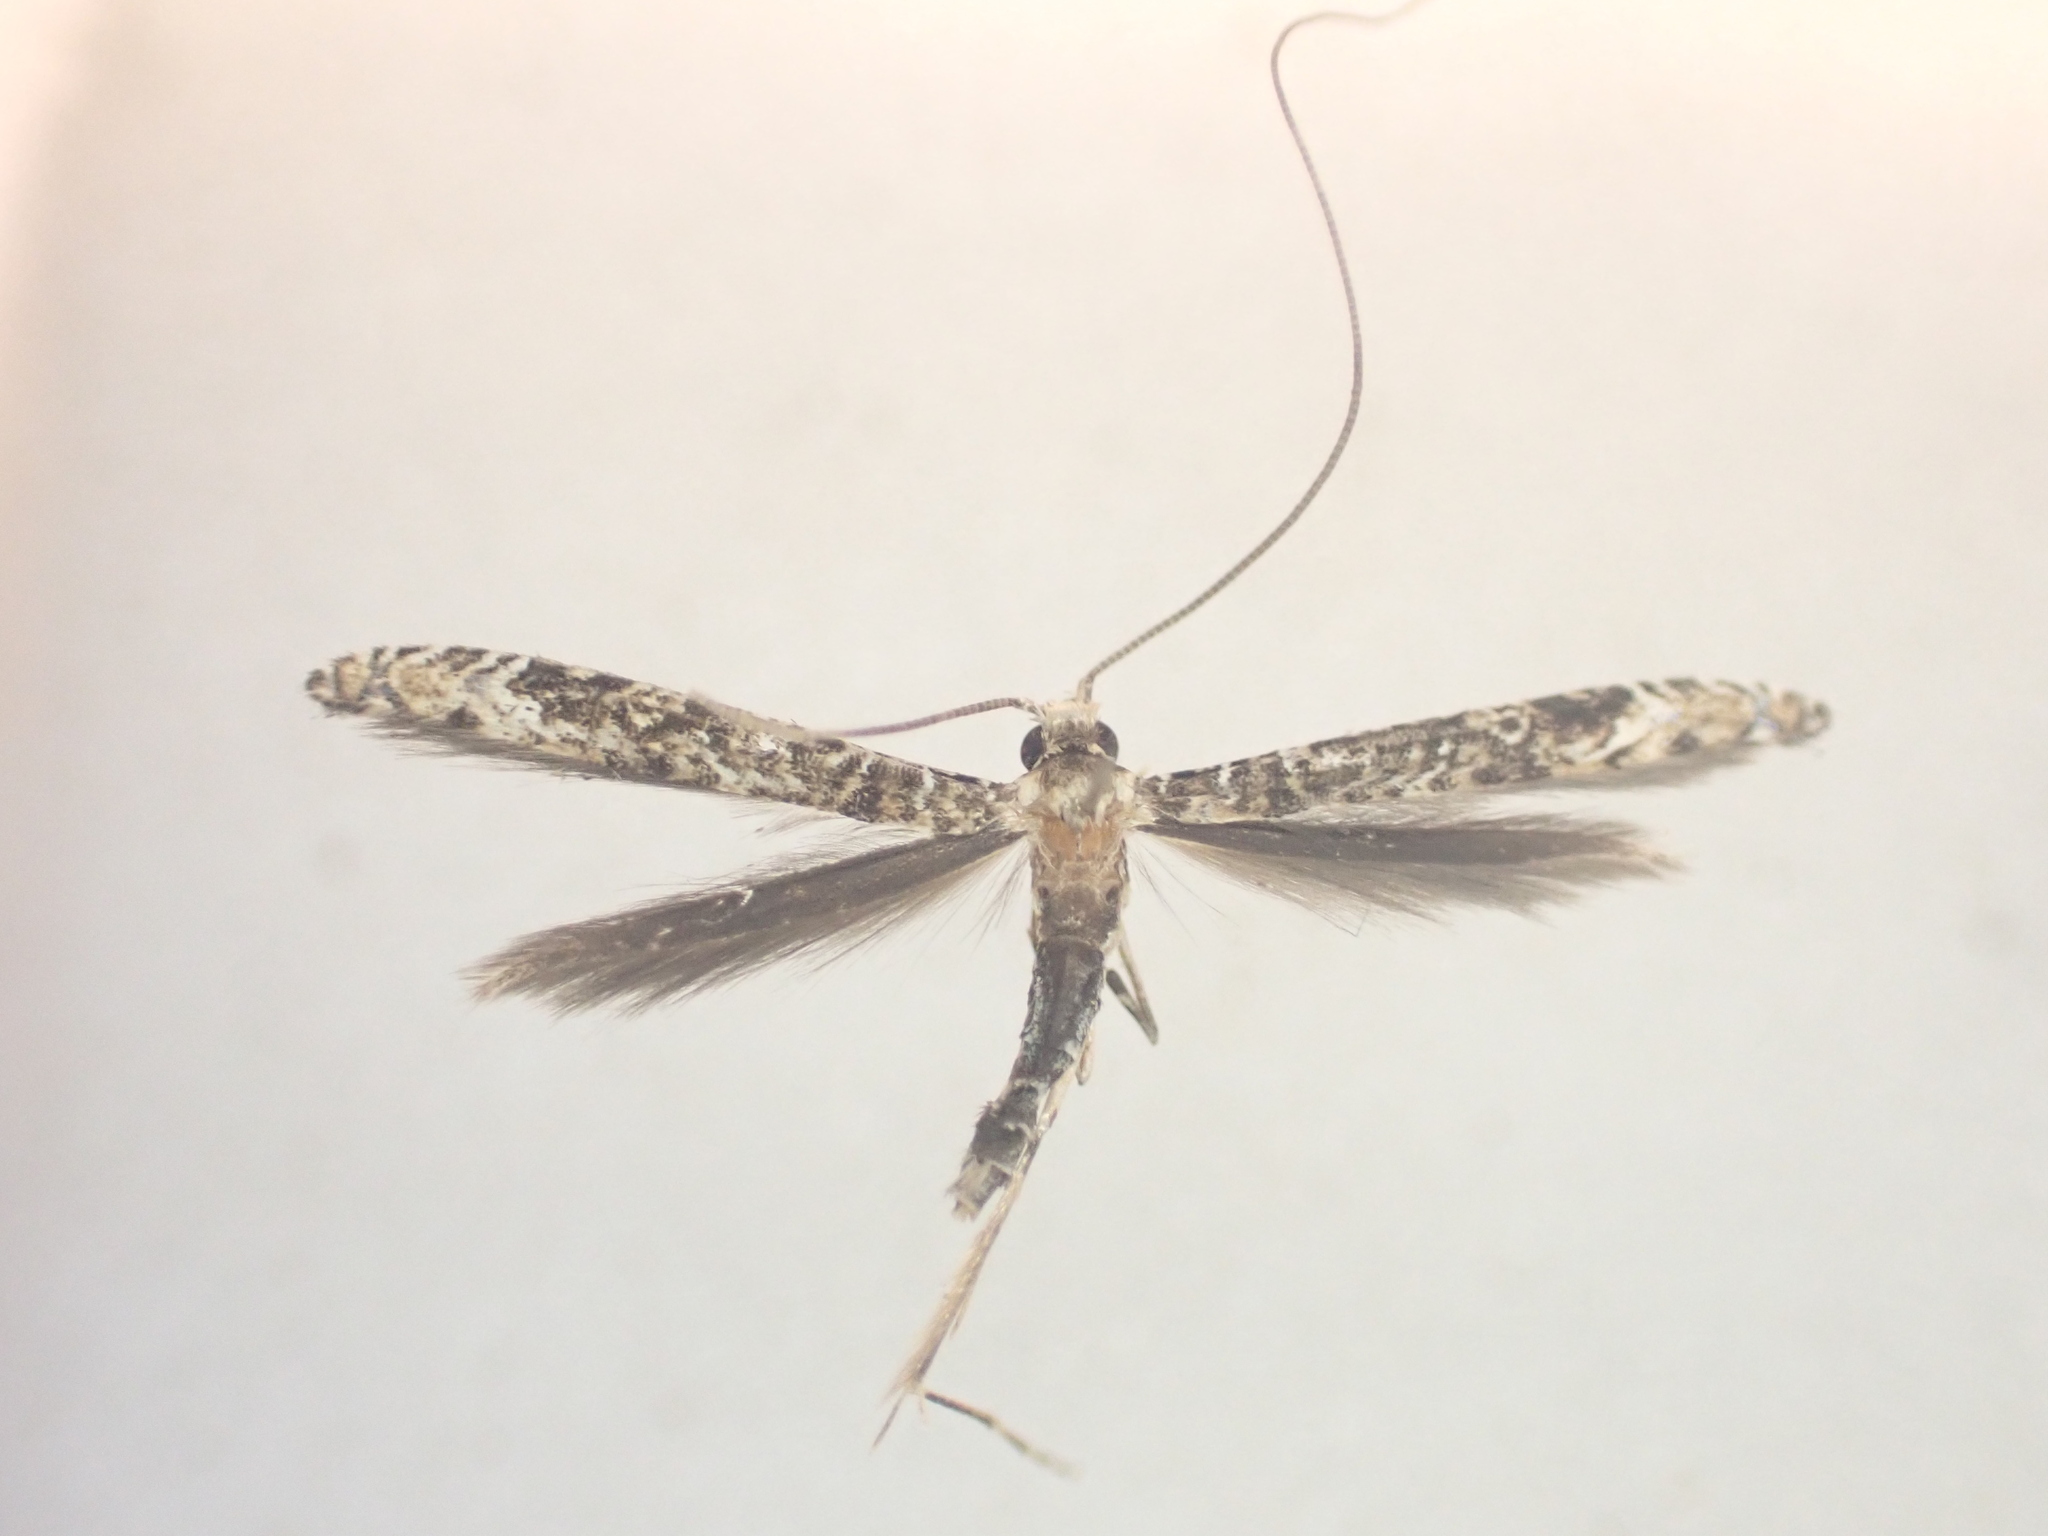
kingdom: Animalia
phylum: Arthropoda
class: Insecta
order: Lepidoptera
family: Gracillariidae
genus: Conopomorpha
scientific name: Conopomorpha cyanospila
